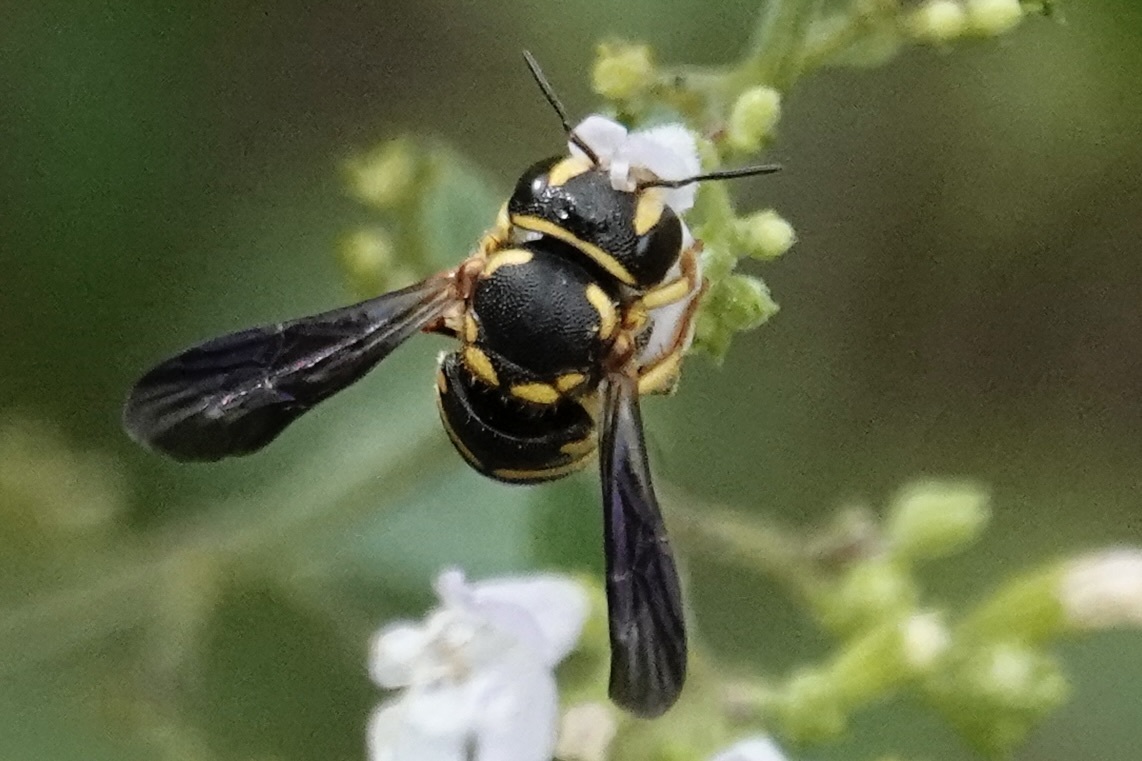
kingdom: Animalia
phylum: Arthropoda
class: Insecta
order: Hymenoptera
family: Megachilidae
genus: Anthidiellum
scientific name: Anthidiellum notatum
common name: Northern rotund-resin bee
